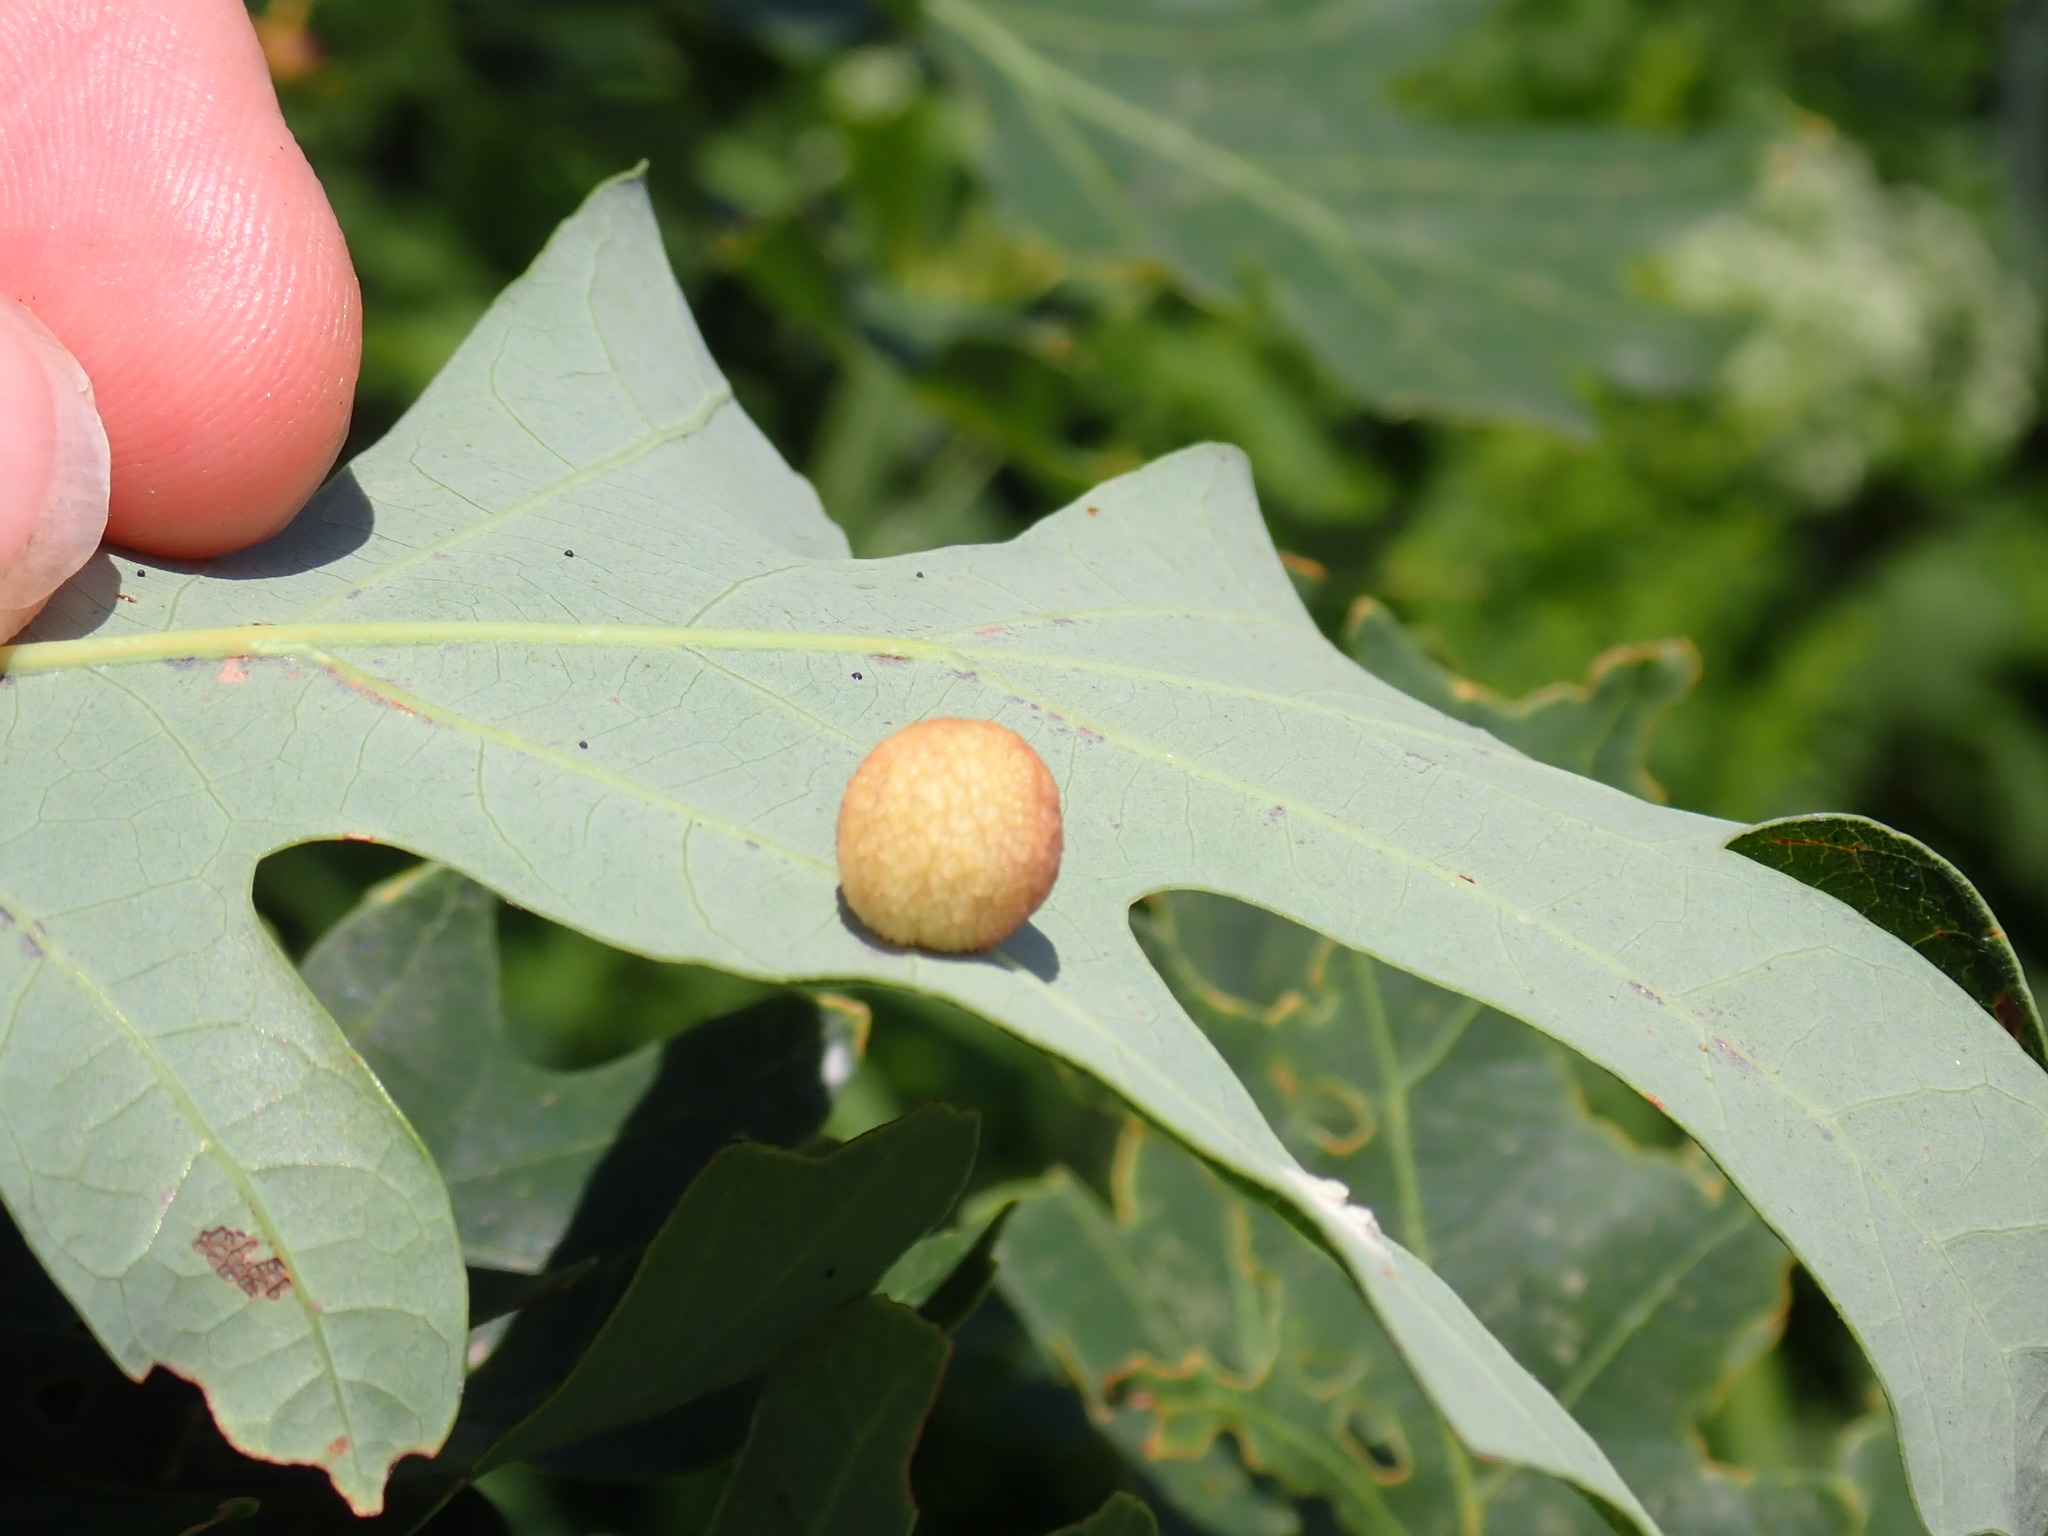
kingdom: Animalia
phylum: Arthropoda
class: Insecta
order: Hymenoptera
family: Cynipidae
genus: Acraspis
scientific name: Acraspis
